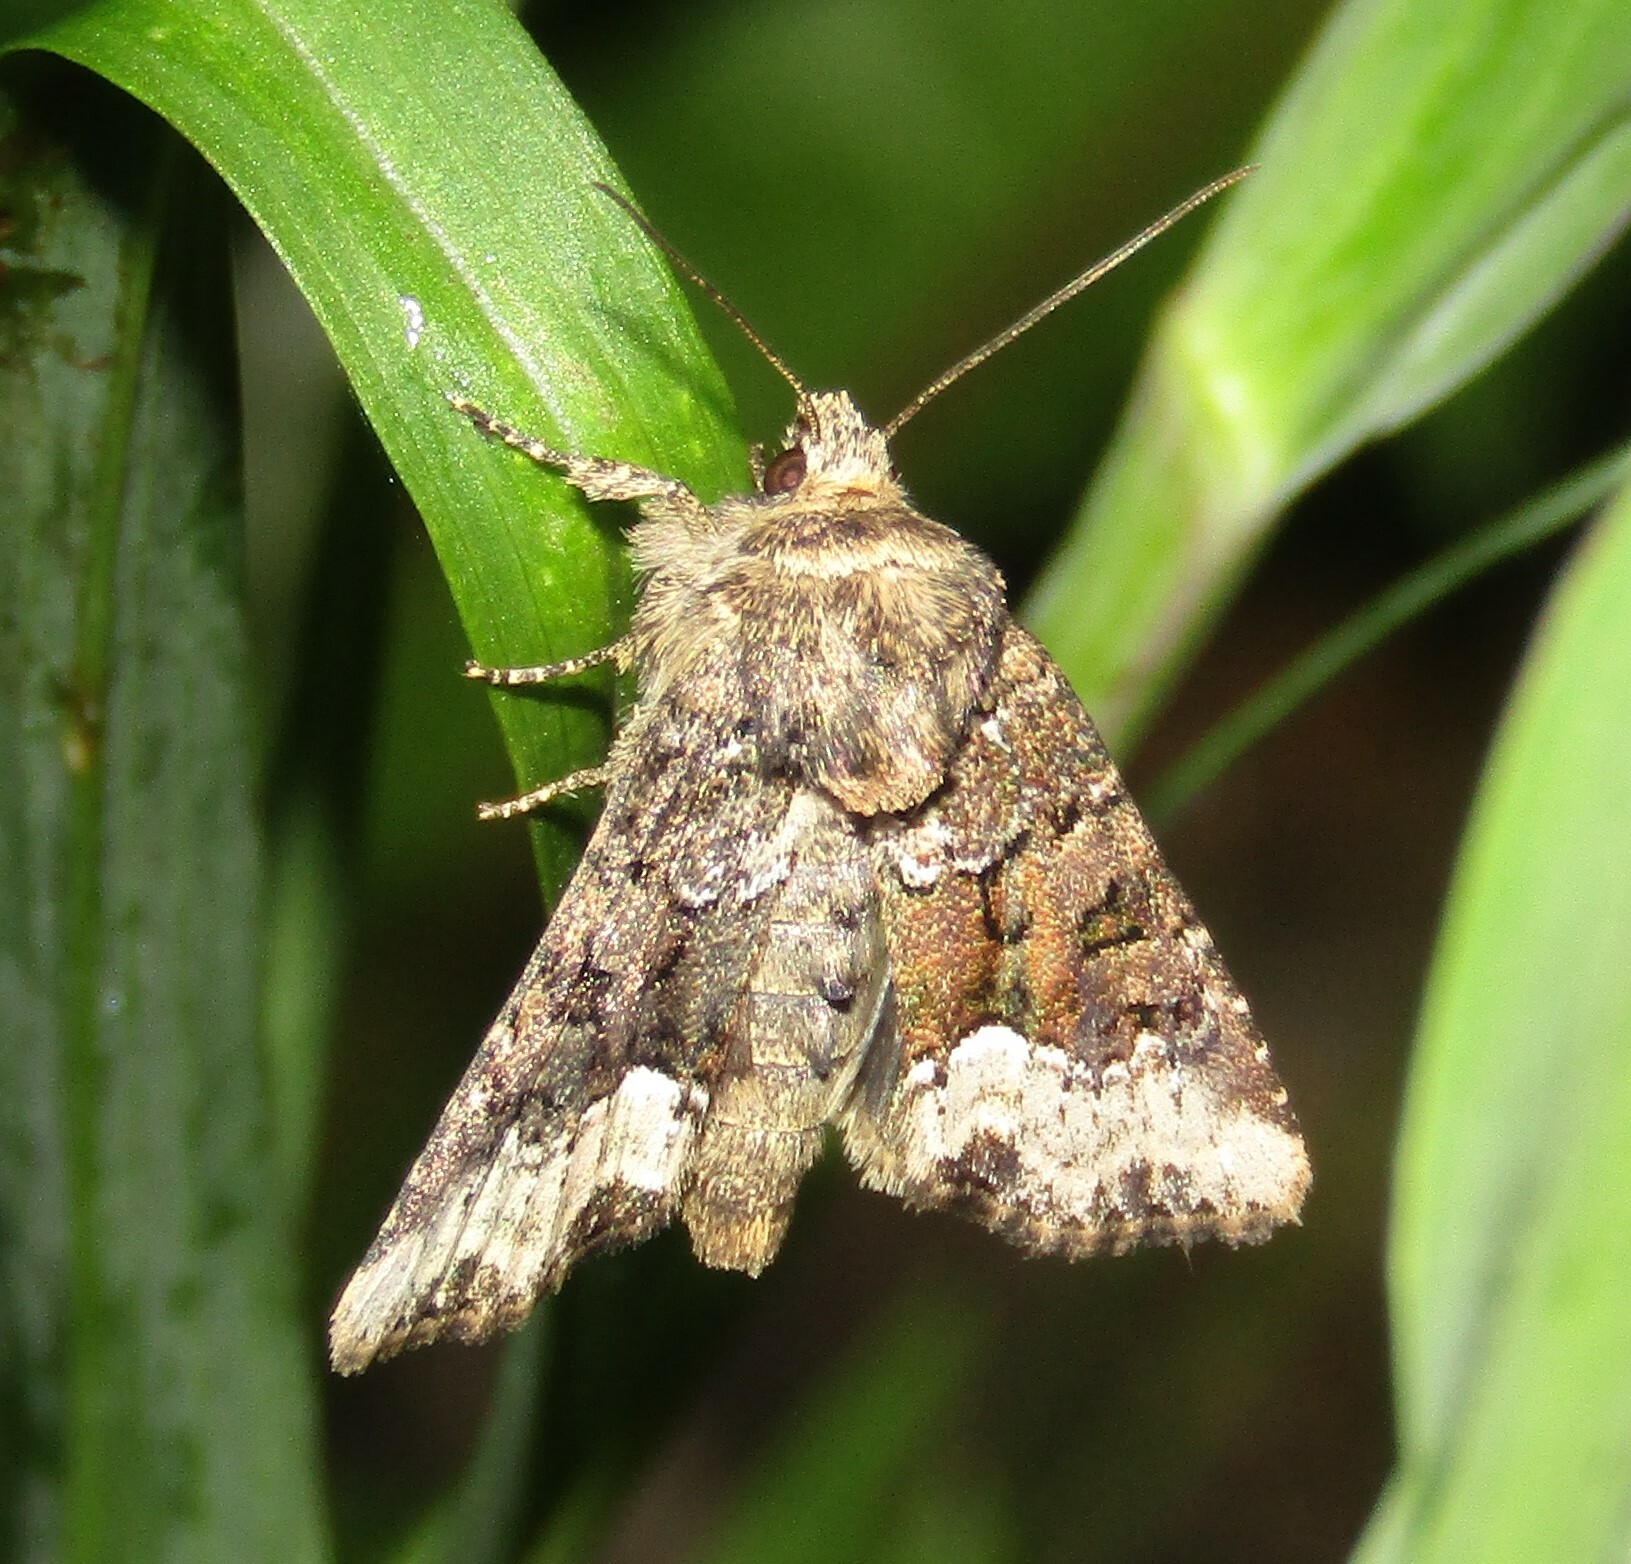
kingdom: Animalia
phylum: Arthropoda
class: Insecta
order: Lepidoptera
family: Noctuidae
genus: Oligia
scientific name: Oligia strigilis
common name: Marbled minor
